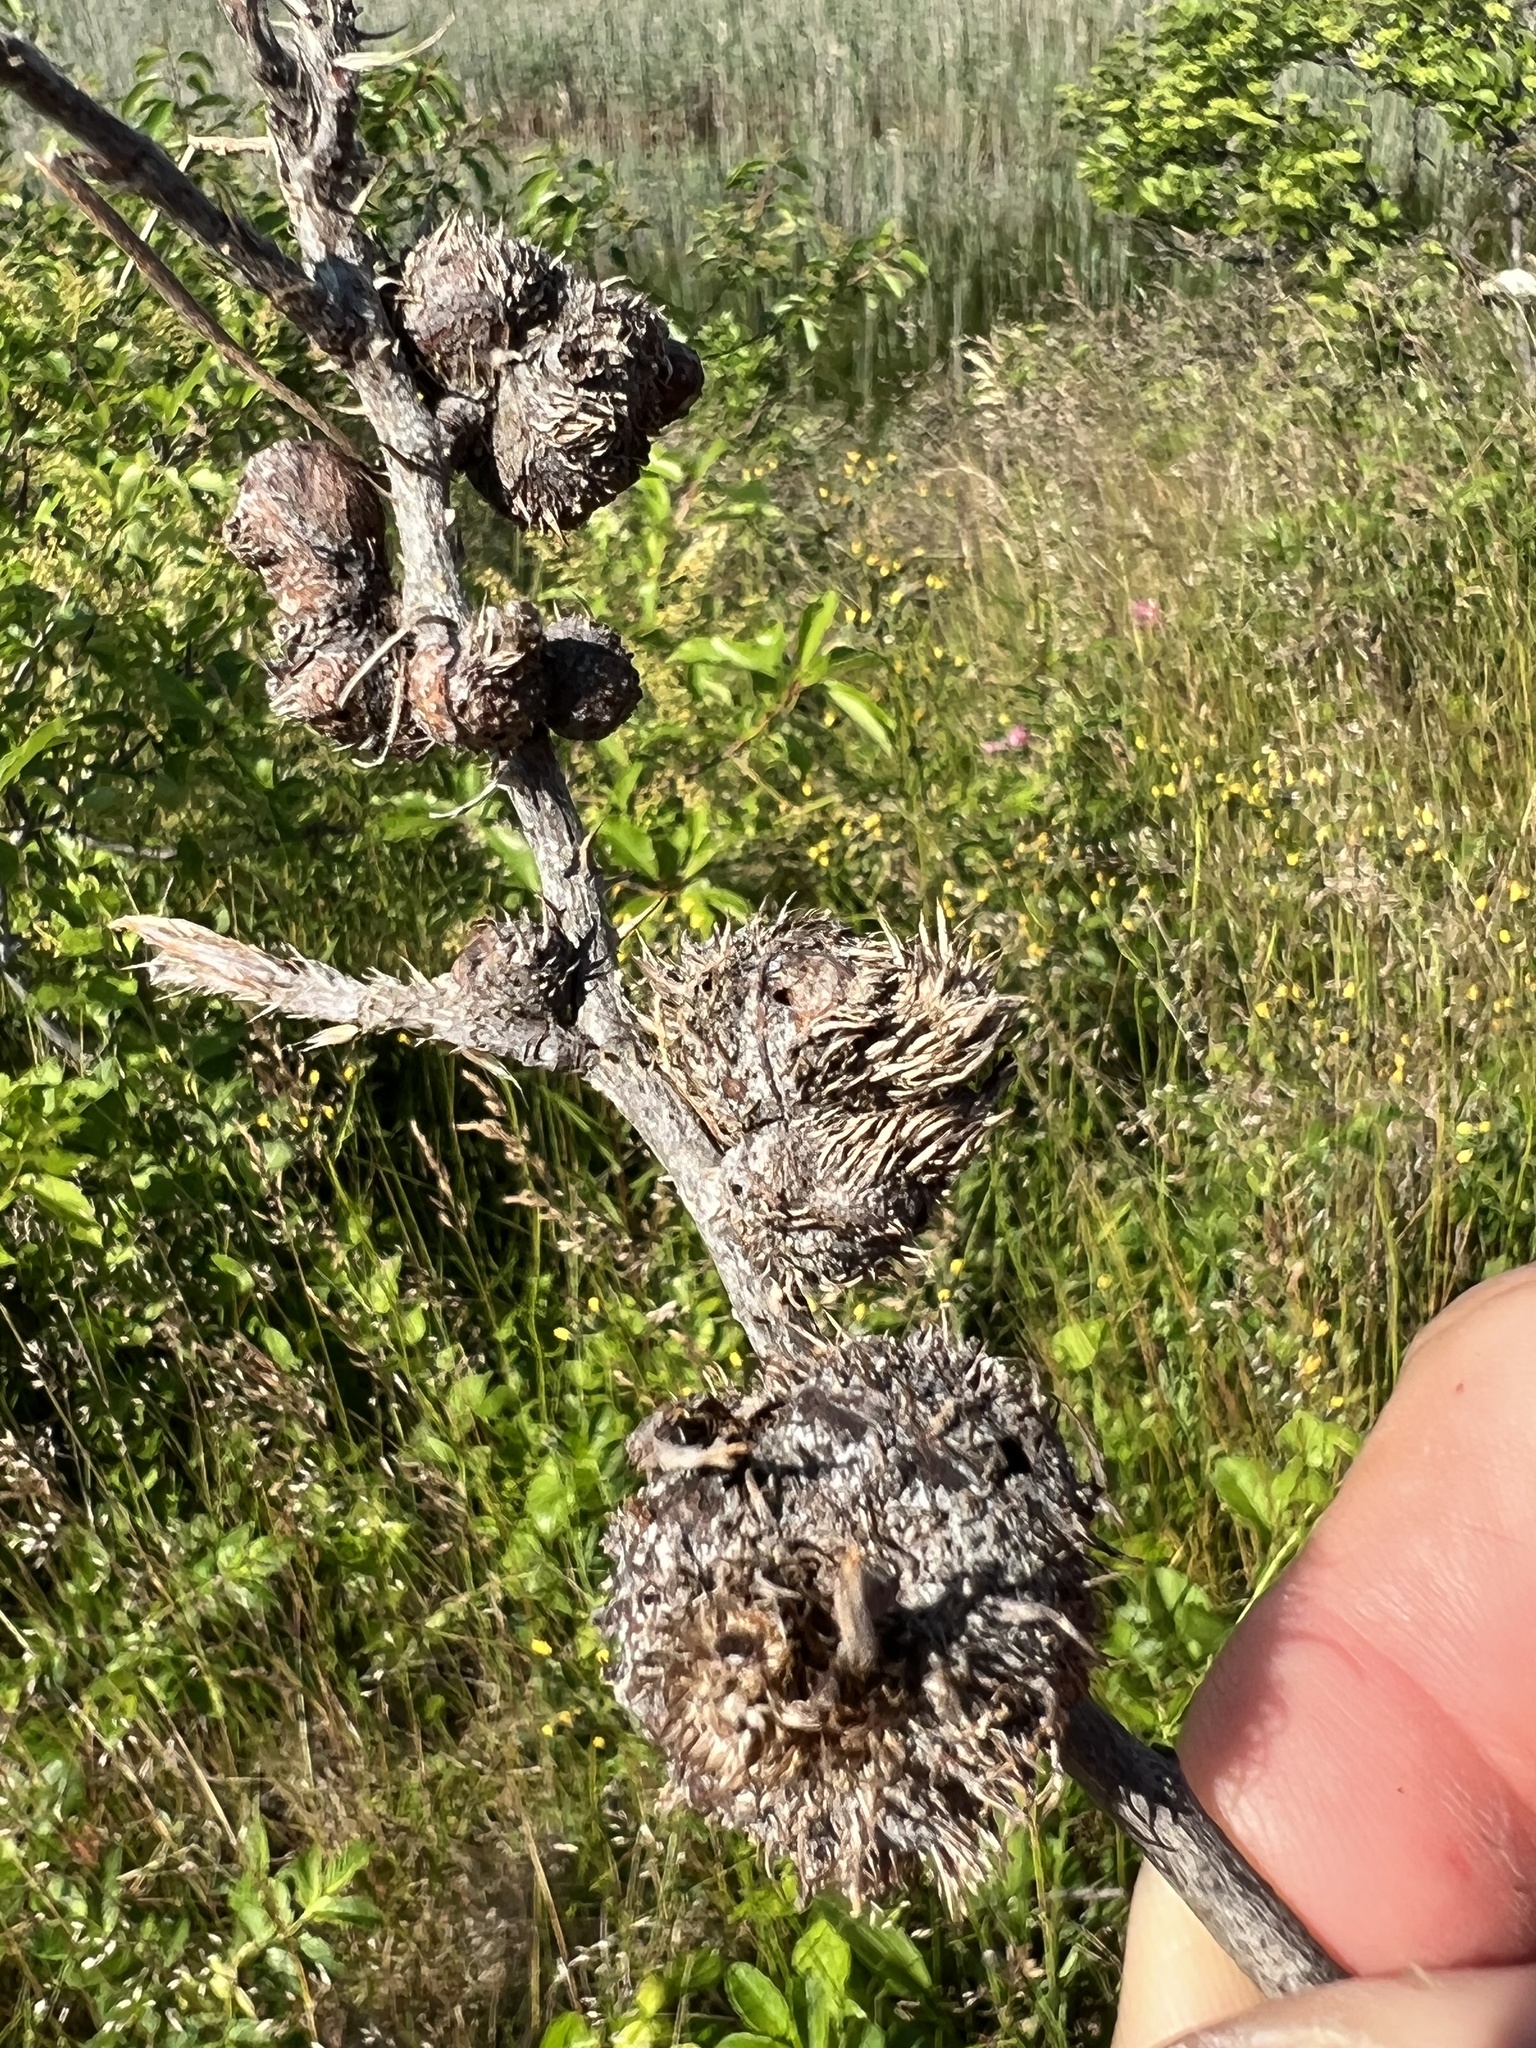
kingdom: Animalia
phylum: Arthropoda
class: Insecta
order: Hymenoptera
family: Cynipidae
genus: Diplolepis
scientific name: Diplolepis spinosa
